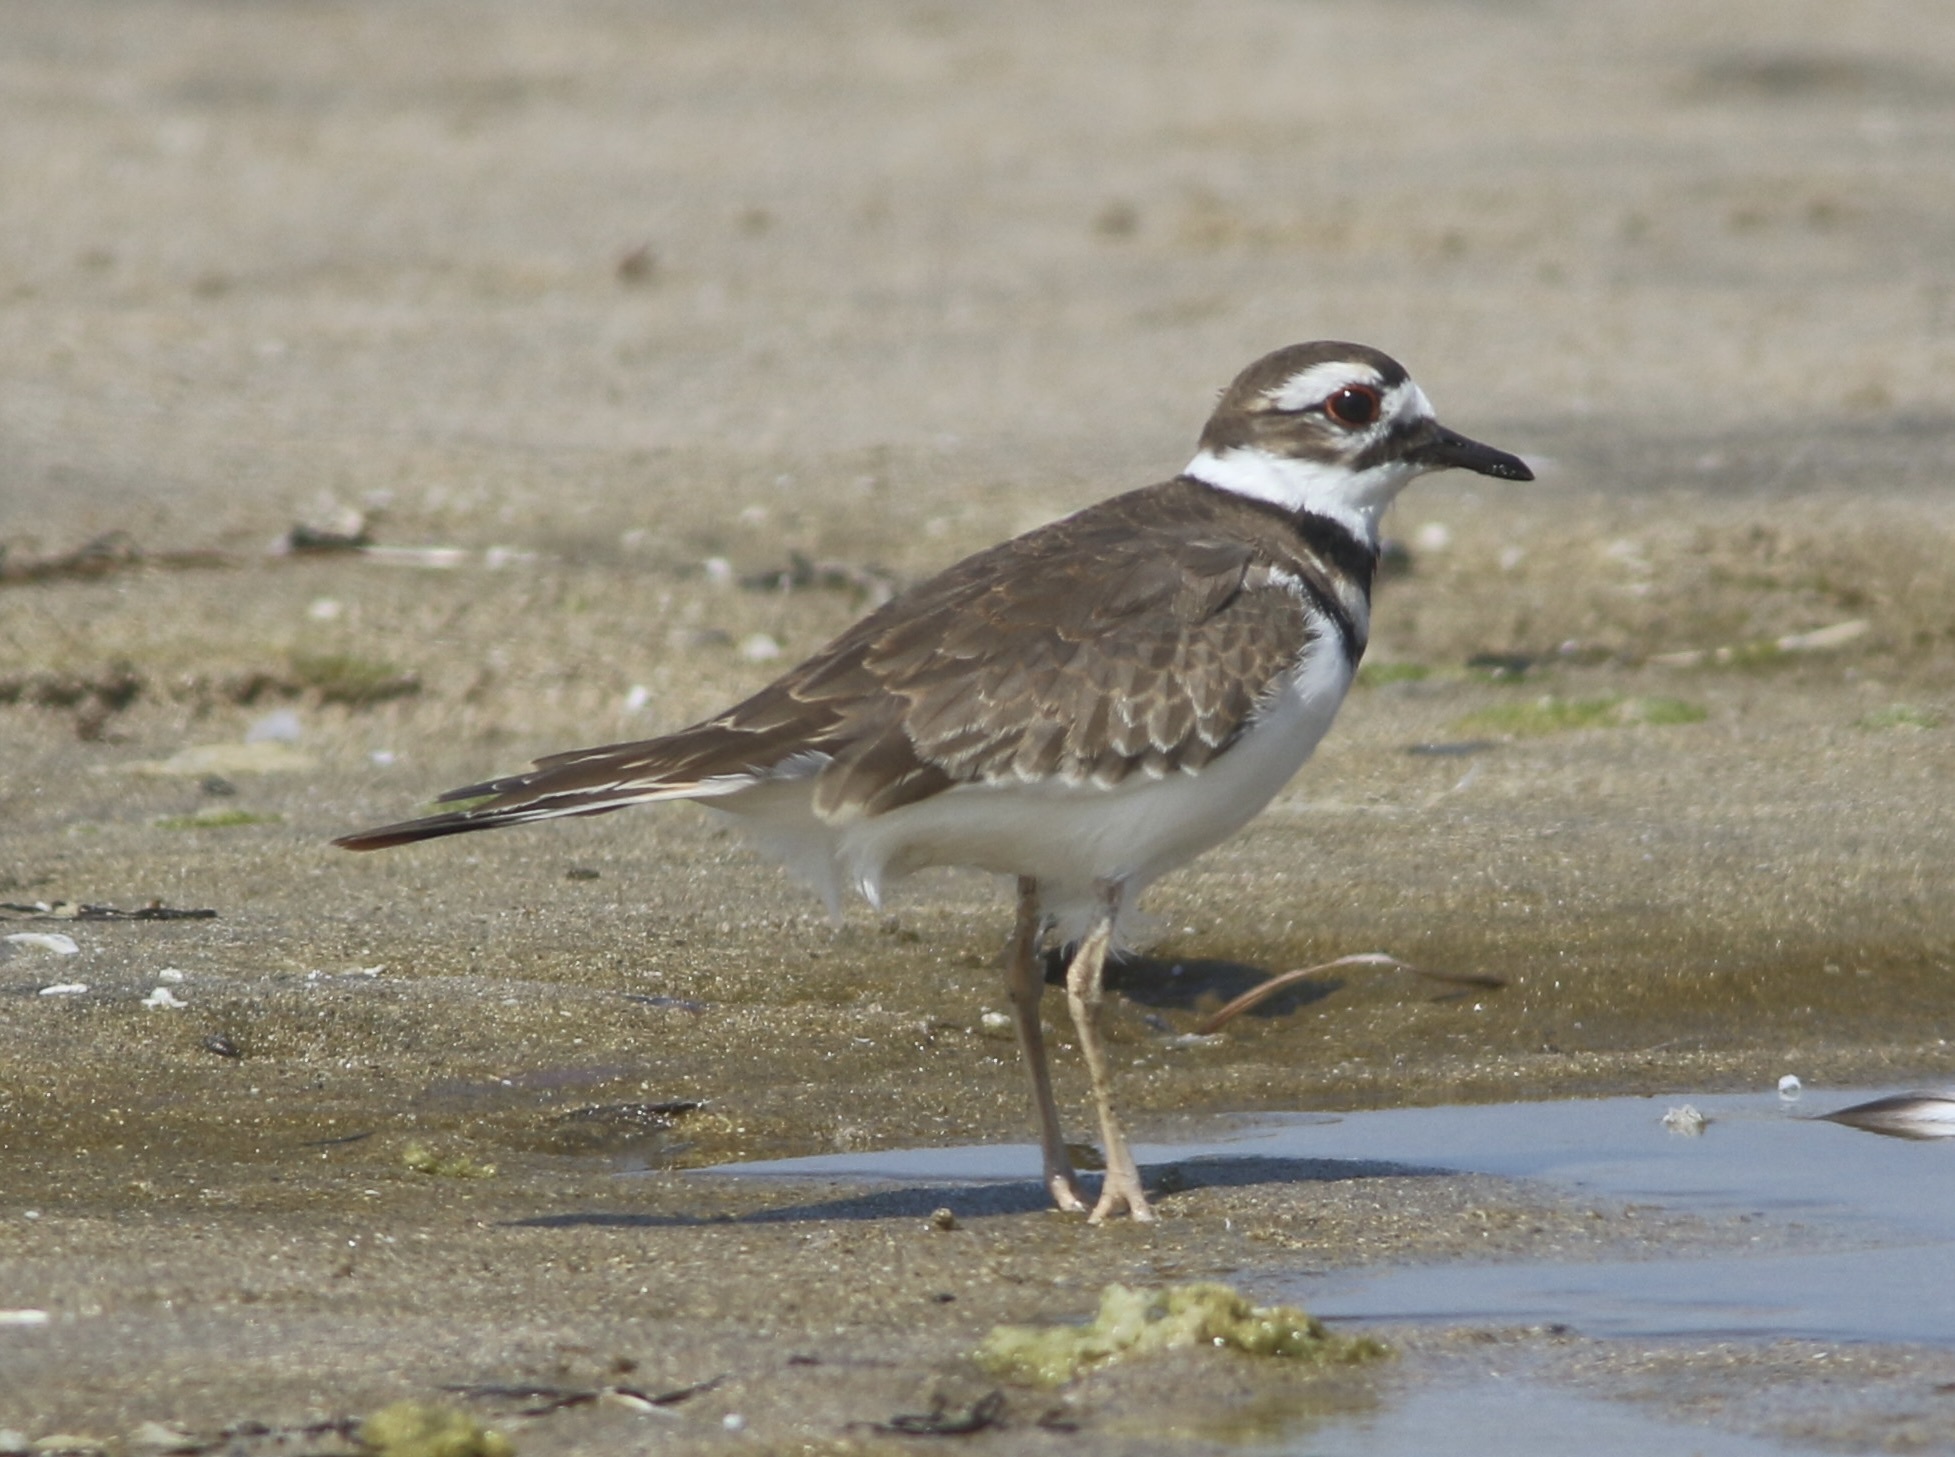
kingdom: Animalia
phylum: Chordata
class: Aves
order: Charadriiformes
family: Charadriidae
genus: Charadrius
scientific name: Charadrius vociferus
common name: Killdeer
